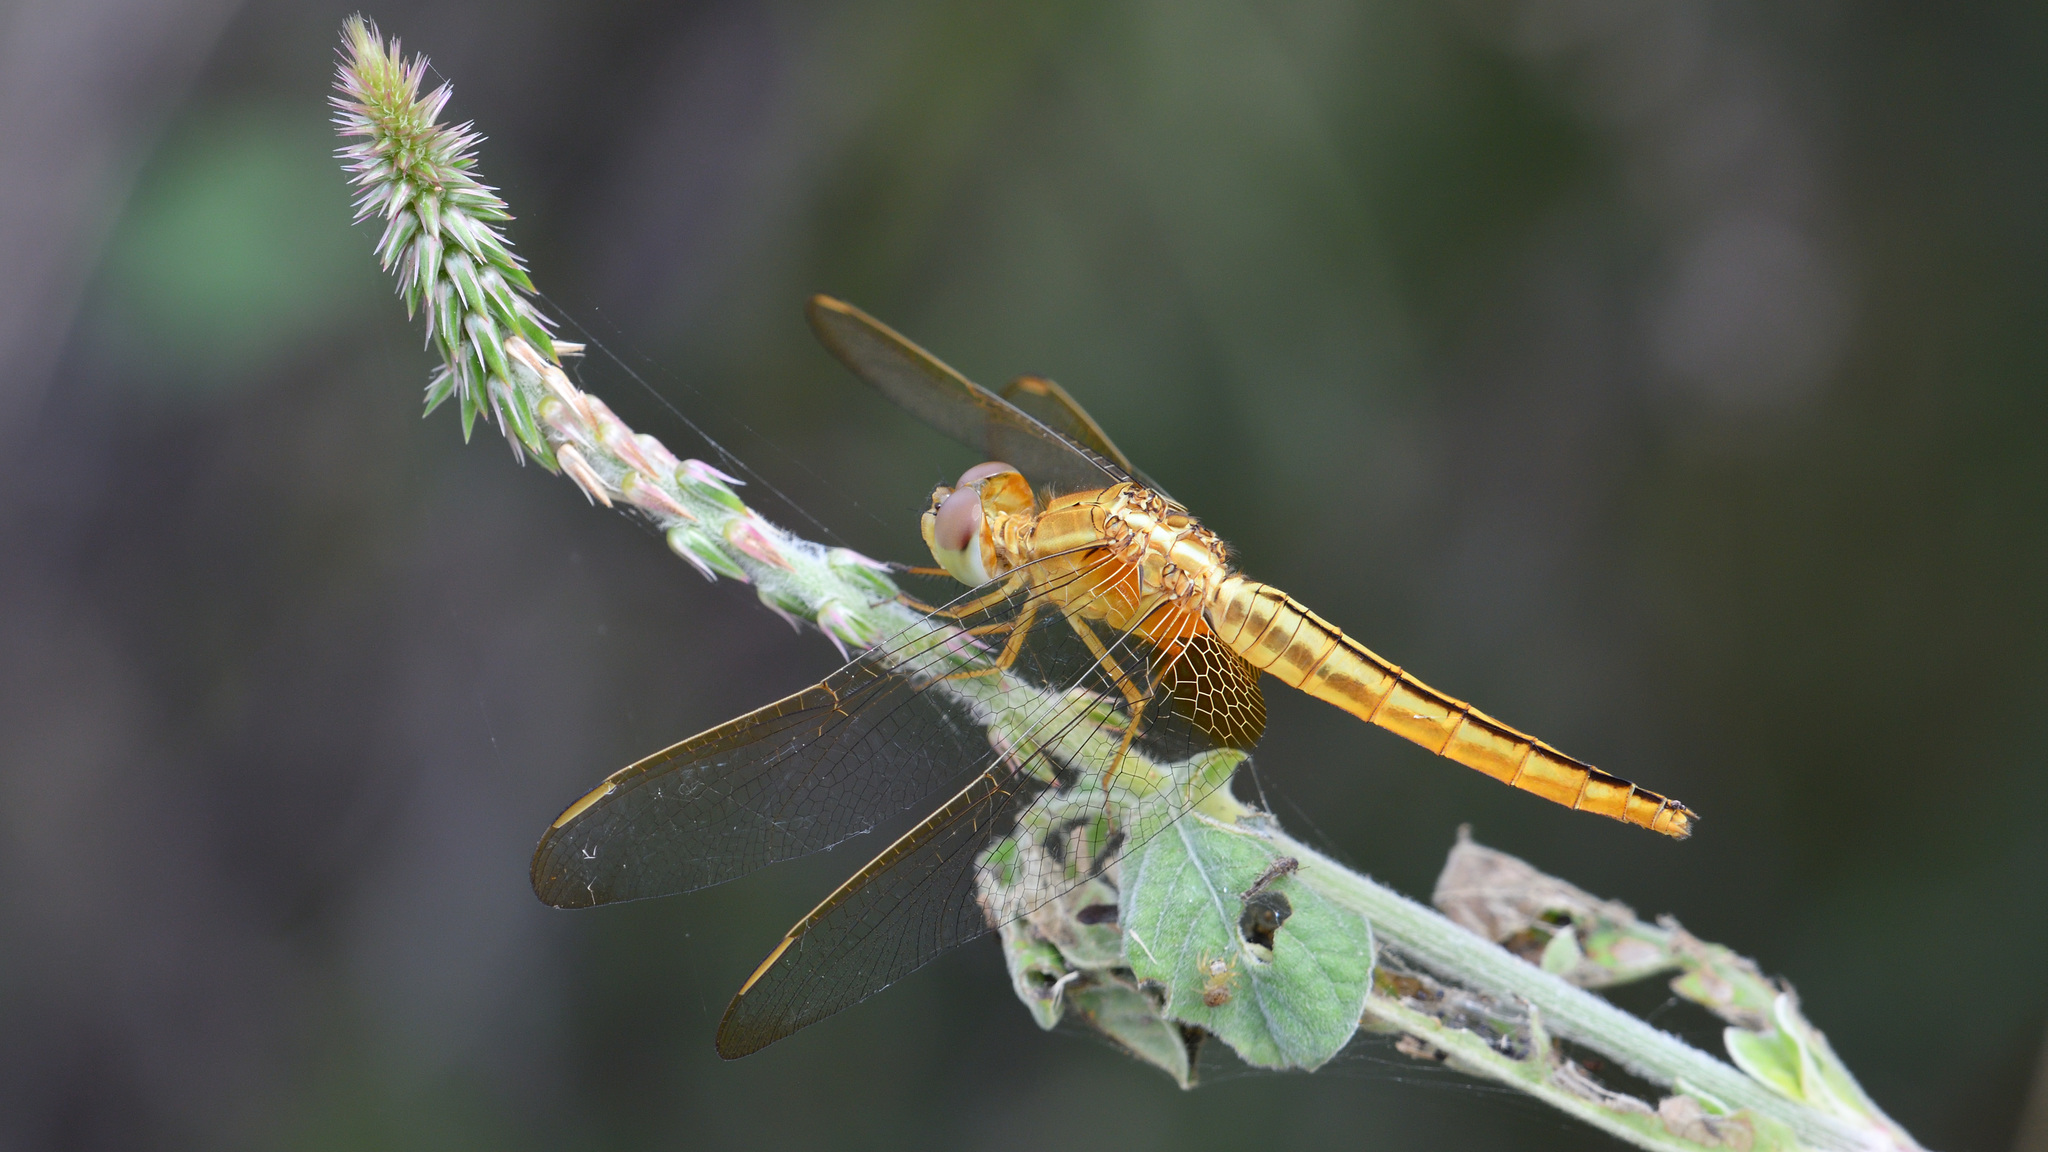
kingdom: Animalia
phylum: Arthropoda
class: Insecta
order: Odonata
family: Libellulidae
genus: Crocothemis
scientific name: Crocothemis servilia
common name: Scarlet skimmer
